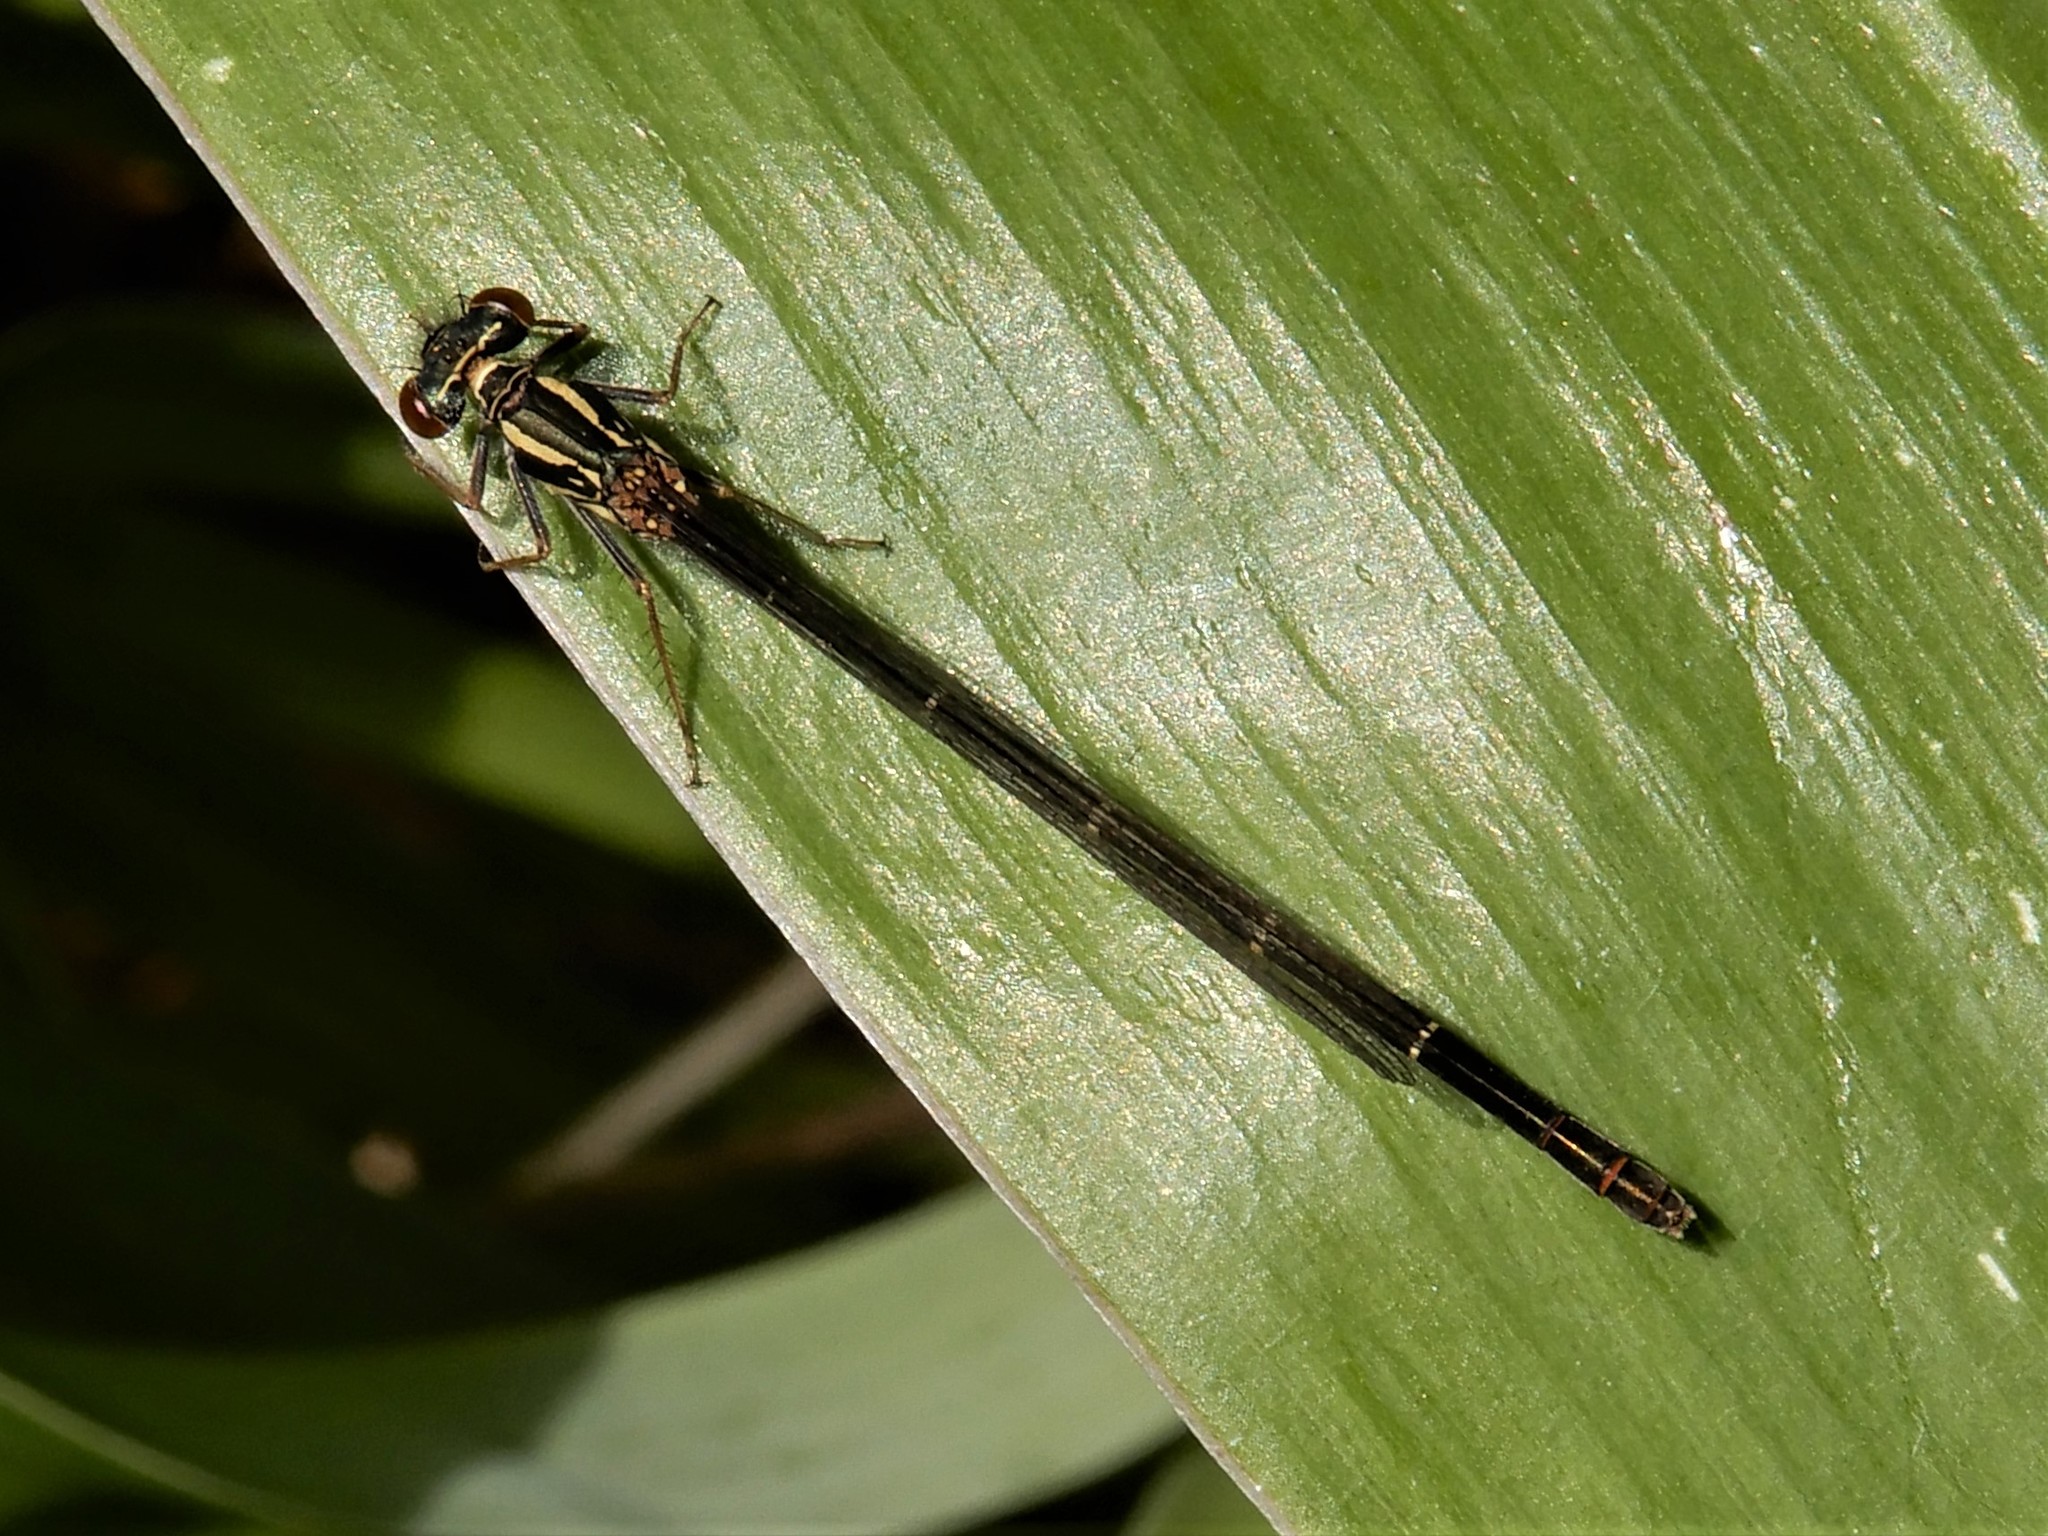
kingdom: Animalia
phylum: Arthropoda
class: Insecta
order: Odonata
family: Coenagrionidae
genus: Xanthocnemis
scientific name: Xanthocnemis zealandica
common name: Common redcoat damselfly
